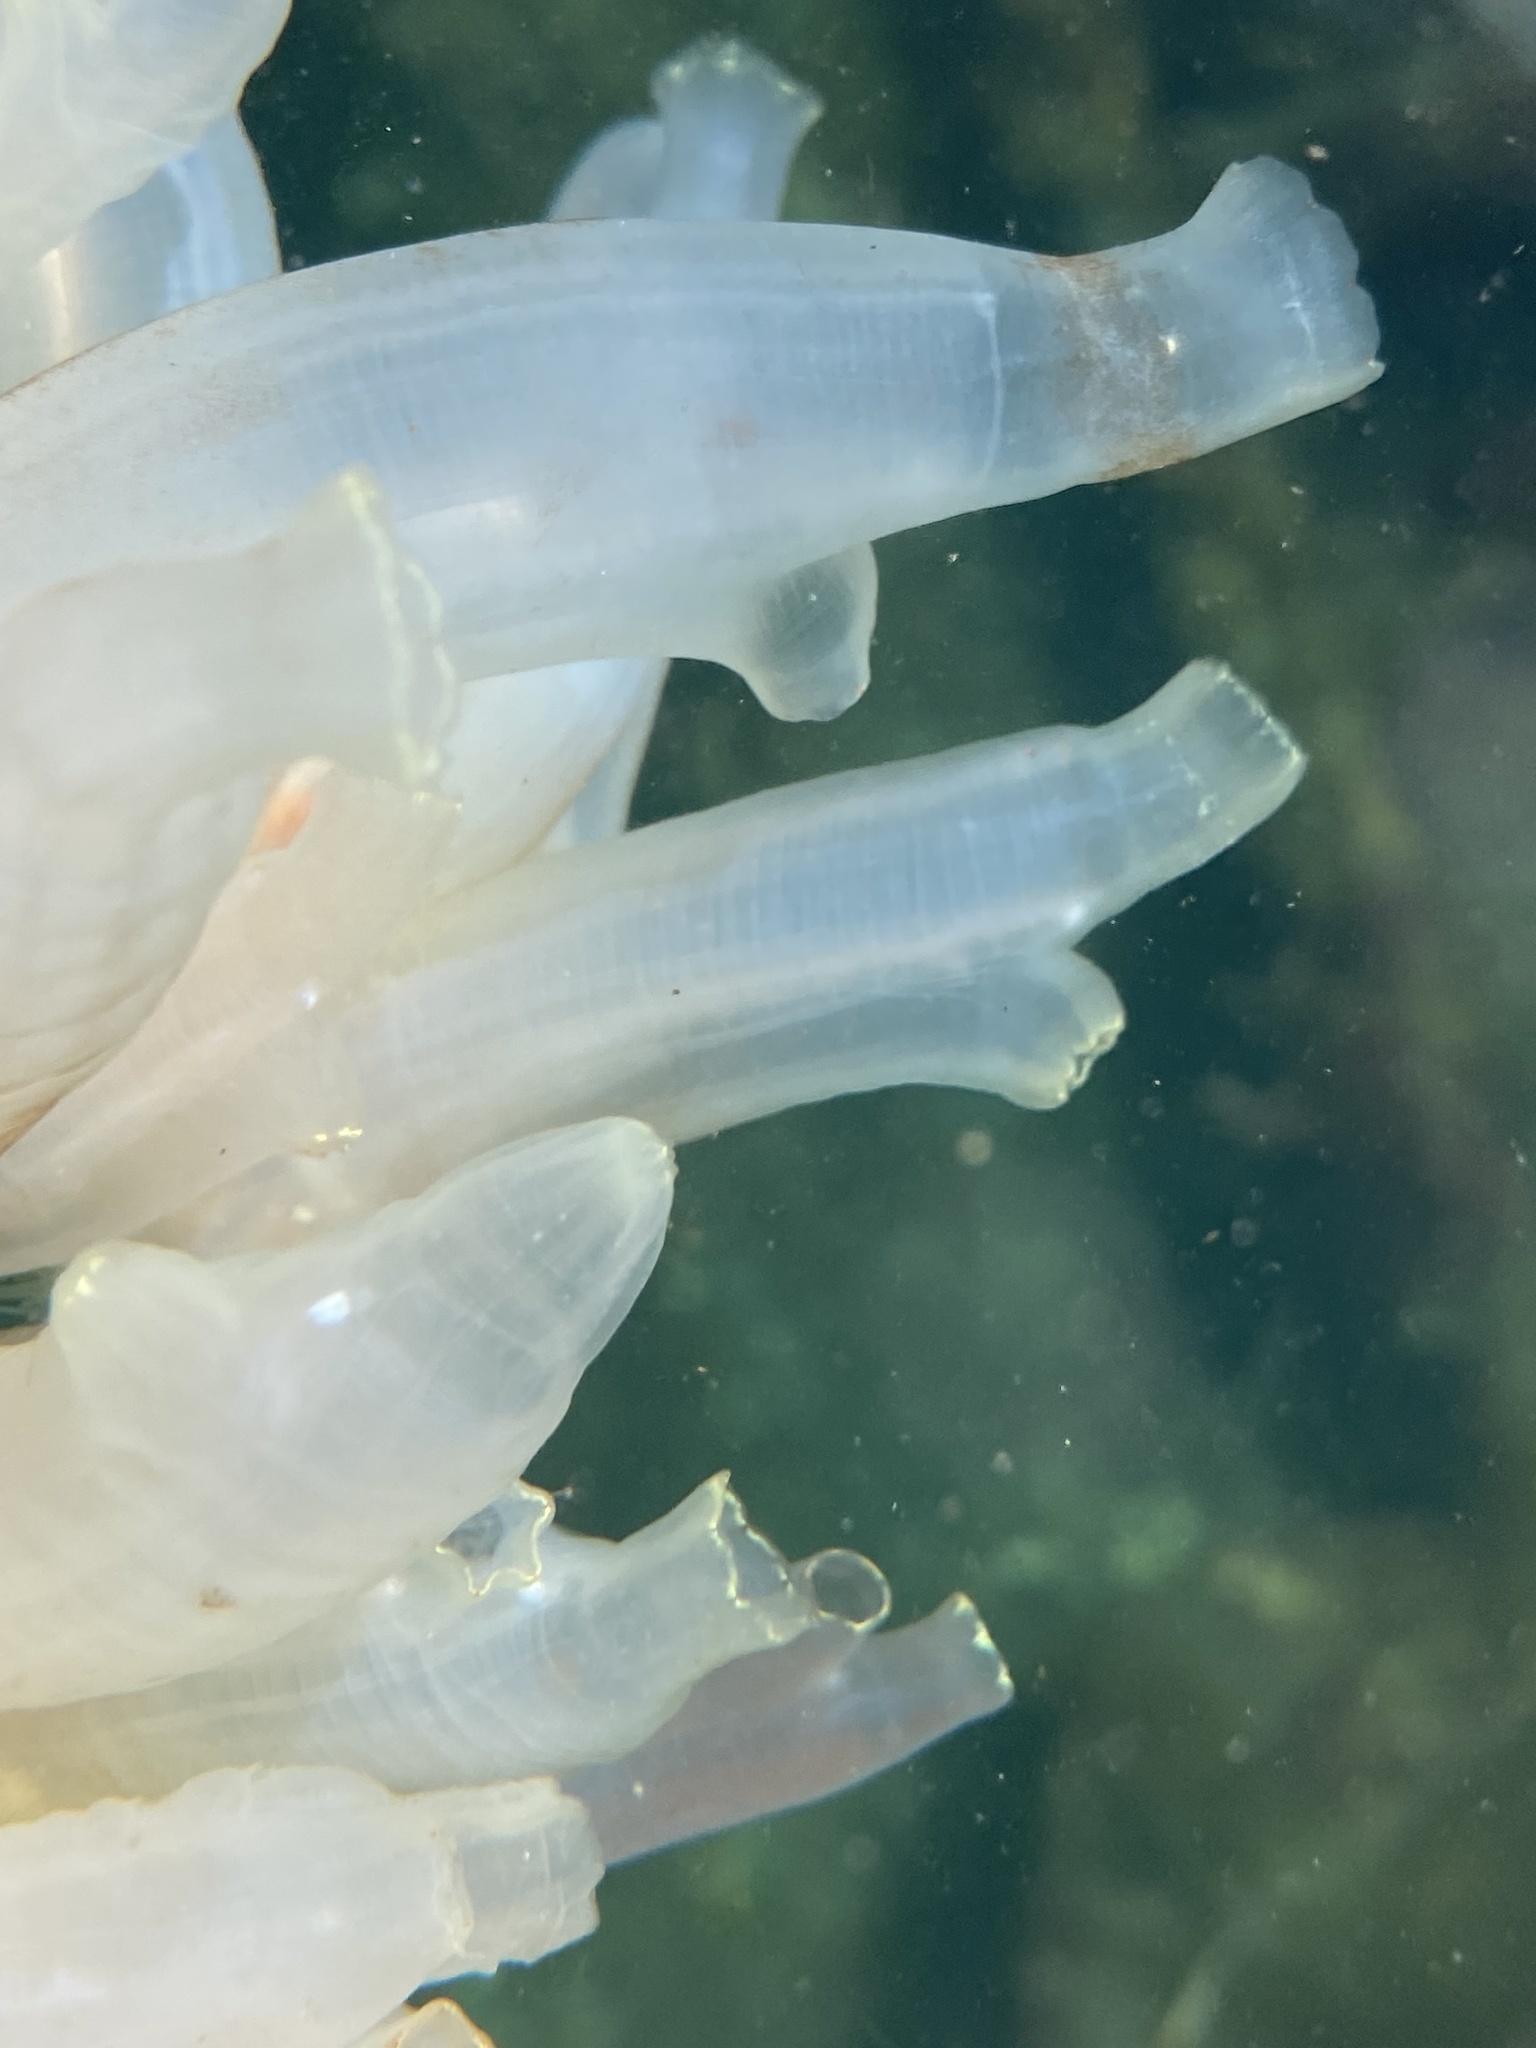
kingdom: Animalia
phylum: Chordata
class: Ascidiacea
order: Phlebobranchia
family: Cionidae
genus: Ciona
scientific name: Ciona intestinalis
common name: Vase tunicate
